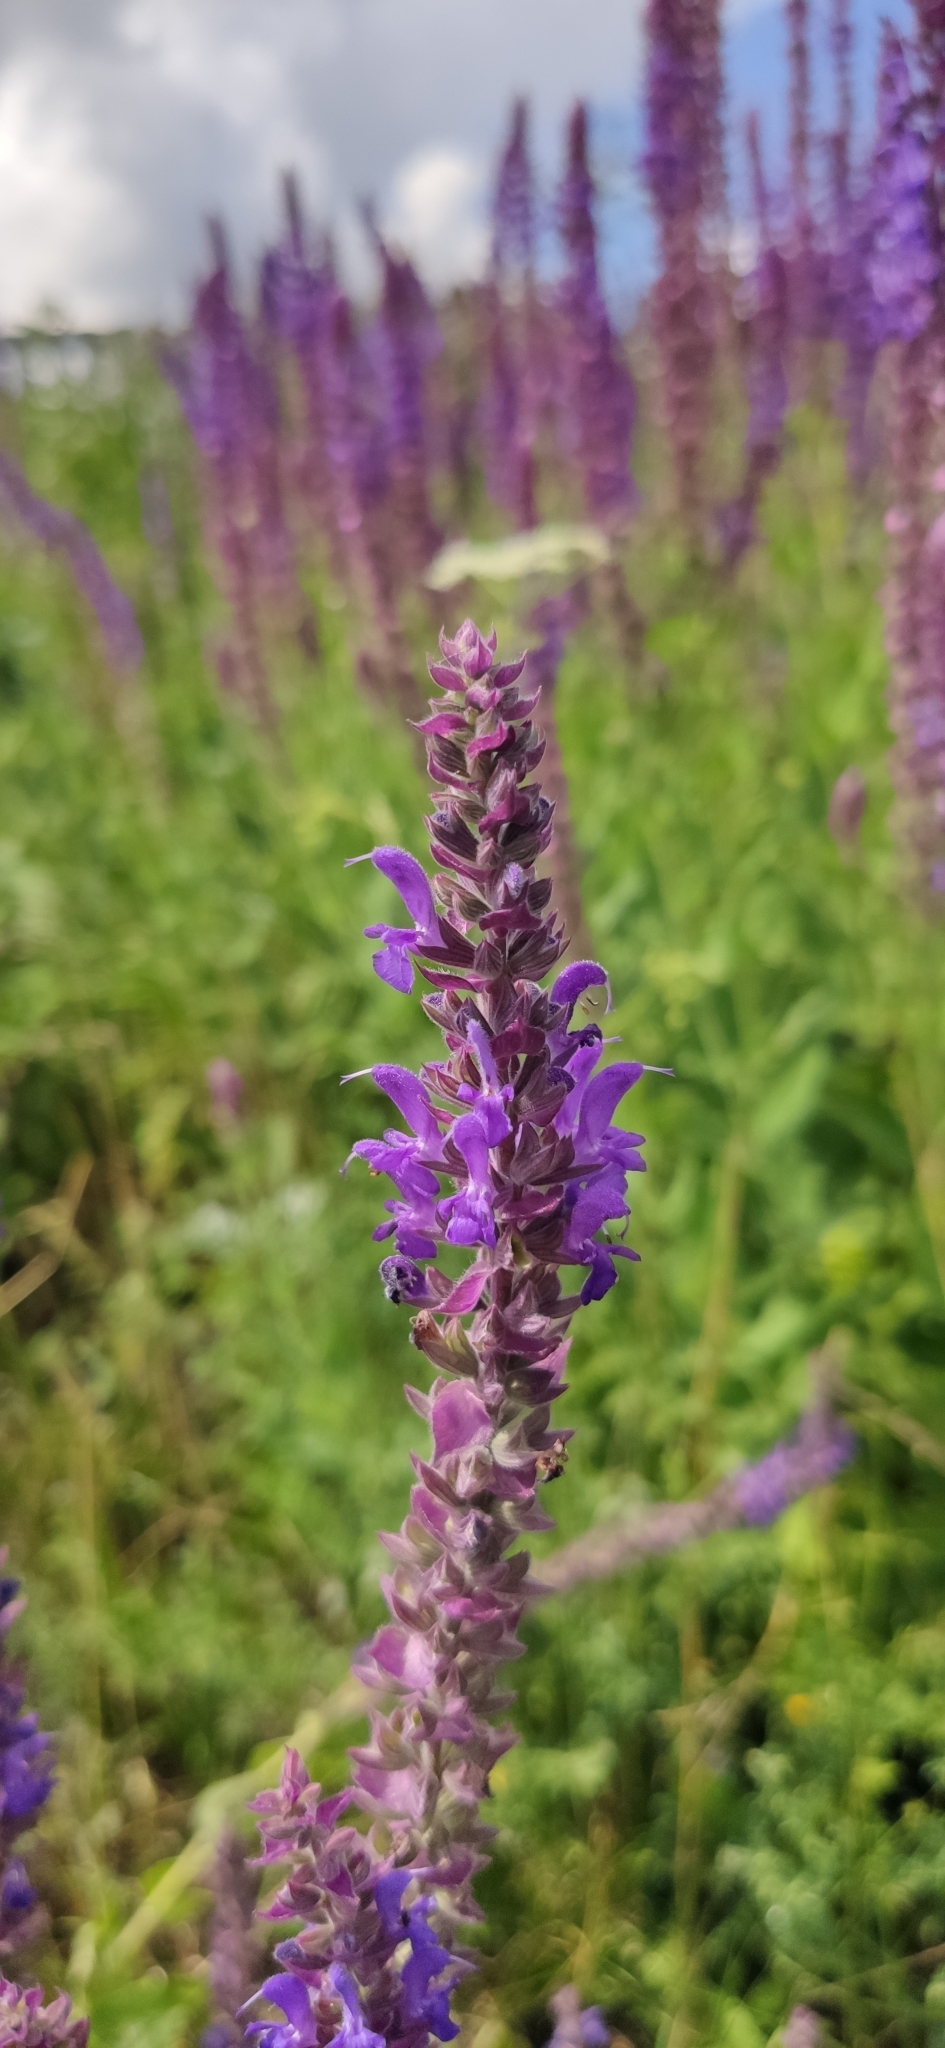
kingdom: Plantae
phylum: Tracheophyta
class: Magnoliopsida
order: Lamiales
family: Lamiaceae
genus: Salvia
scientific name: Salvia nemorosa
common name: Balkan clary
